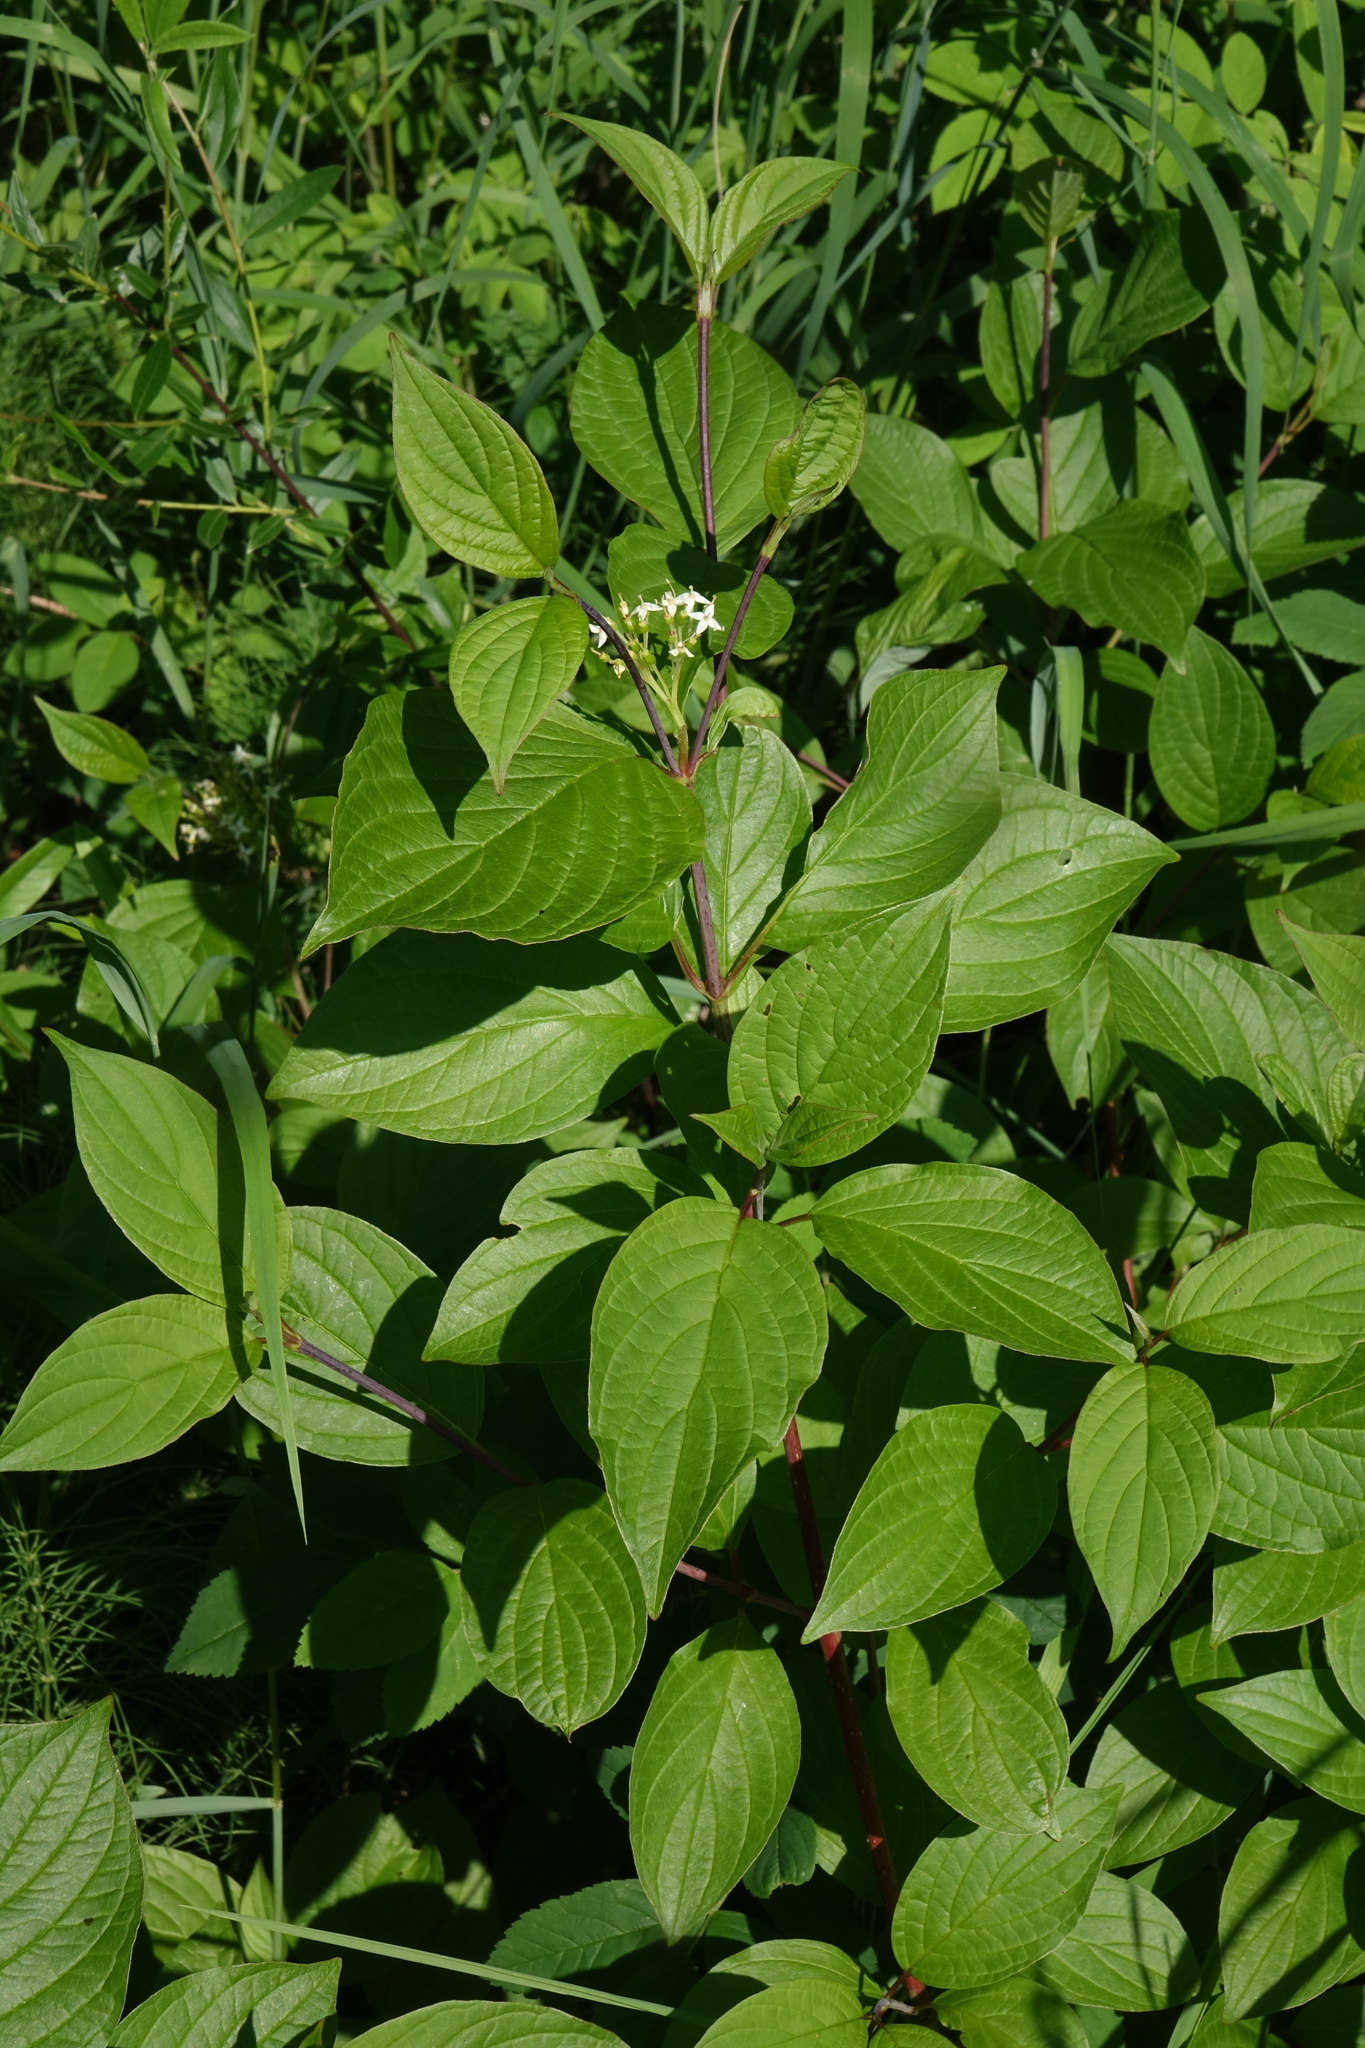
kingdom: Plantae
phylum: Tracheophyta
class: Magnoliopsida
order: Cornales
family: Cornaceae
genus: Cornus
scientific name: Cornus alba
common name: White dogwood
